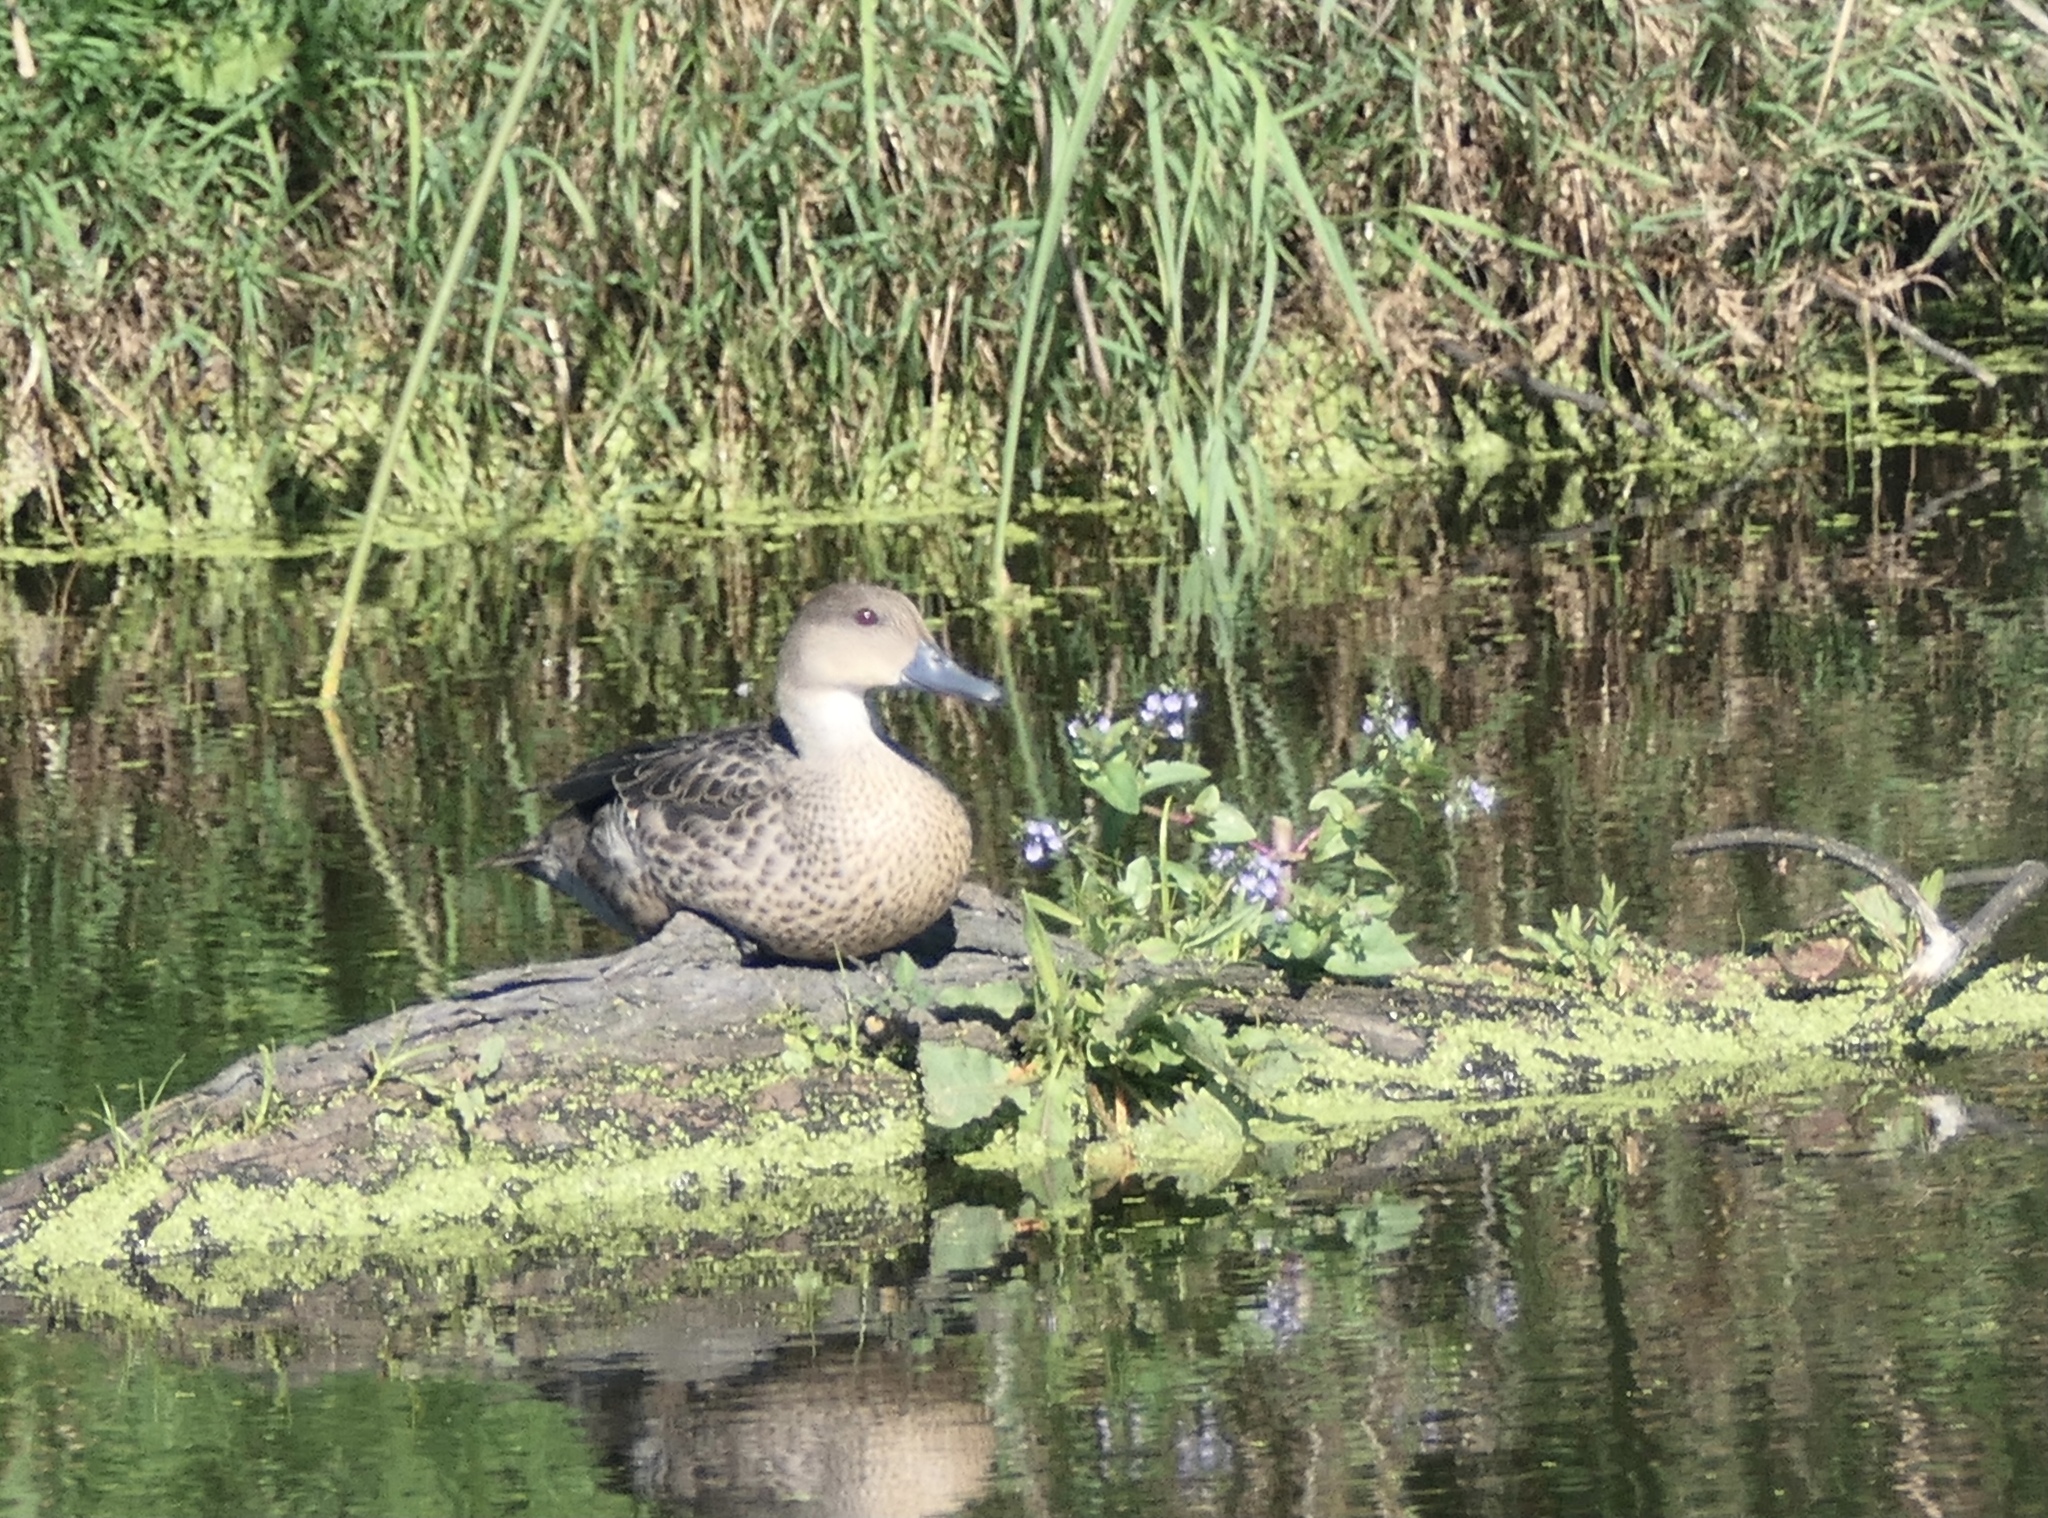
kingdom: Animalia
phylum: Chordata
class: Aves
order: Anseriformes
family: Anatidae
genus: Anas
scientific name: Anas gracilis
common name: Grey teal
